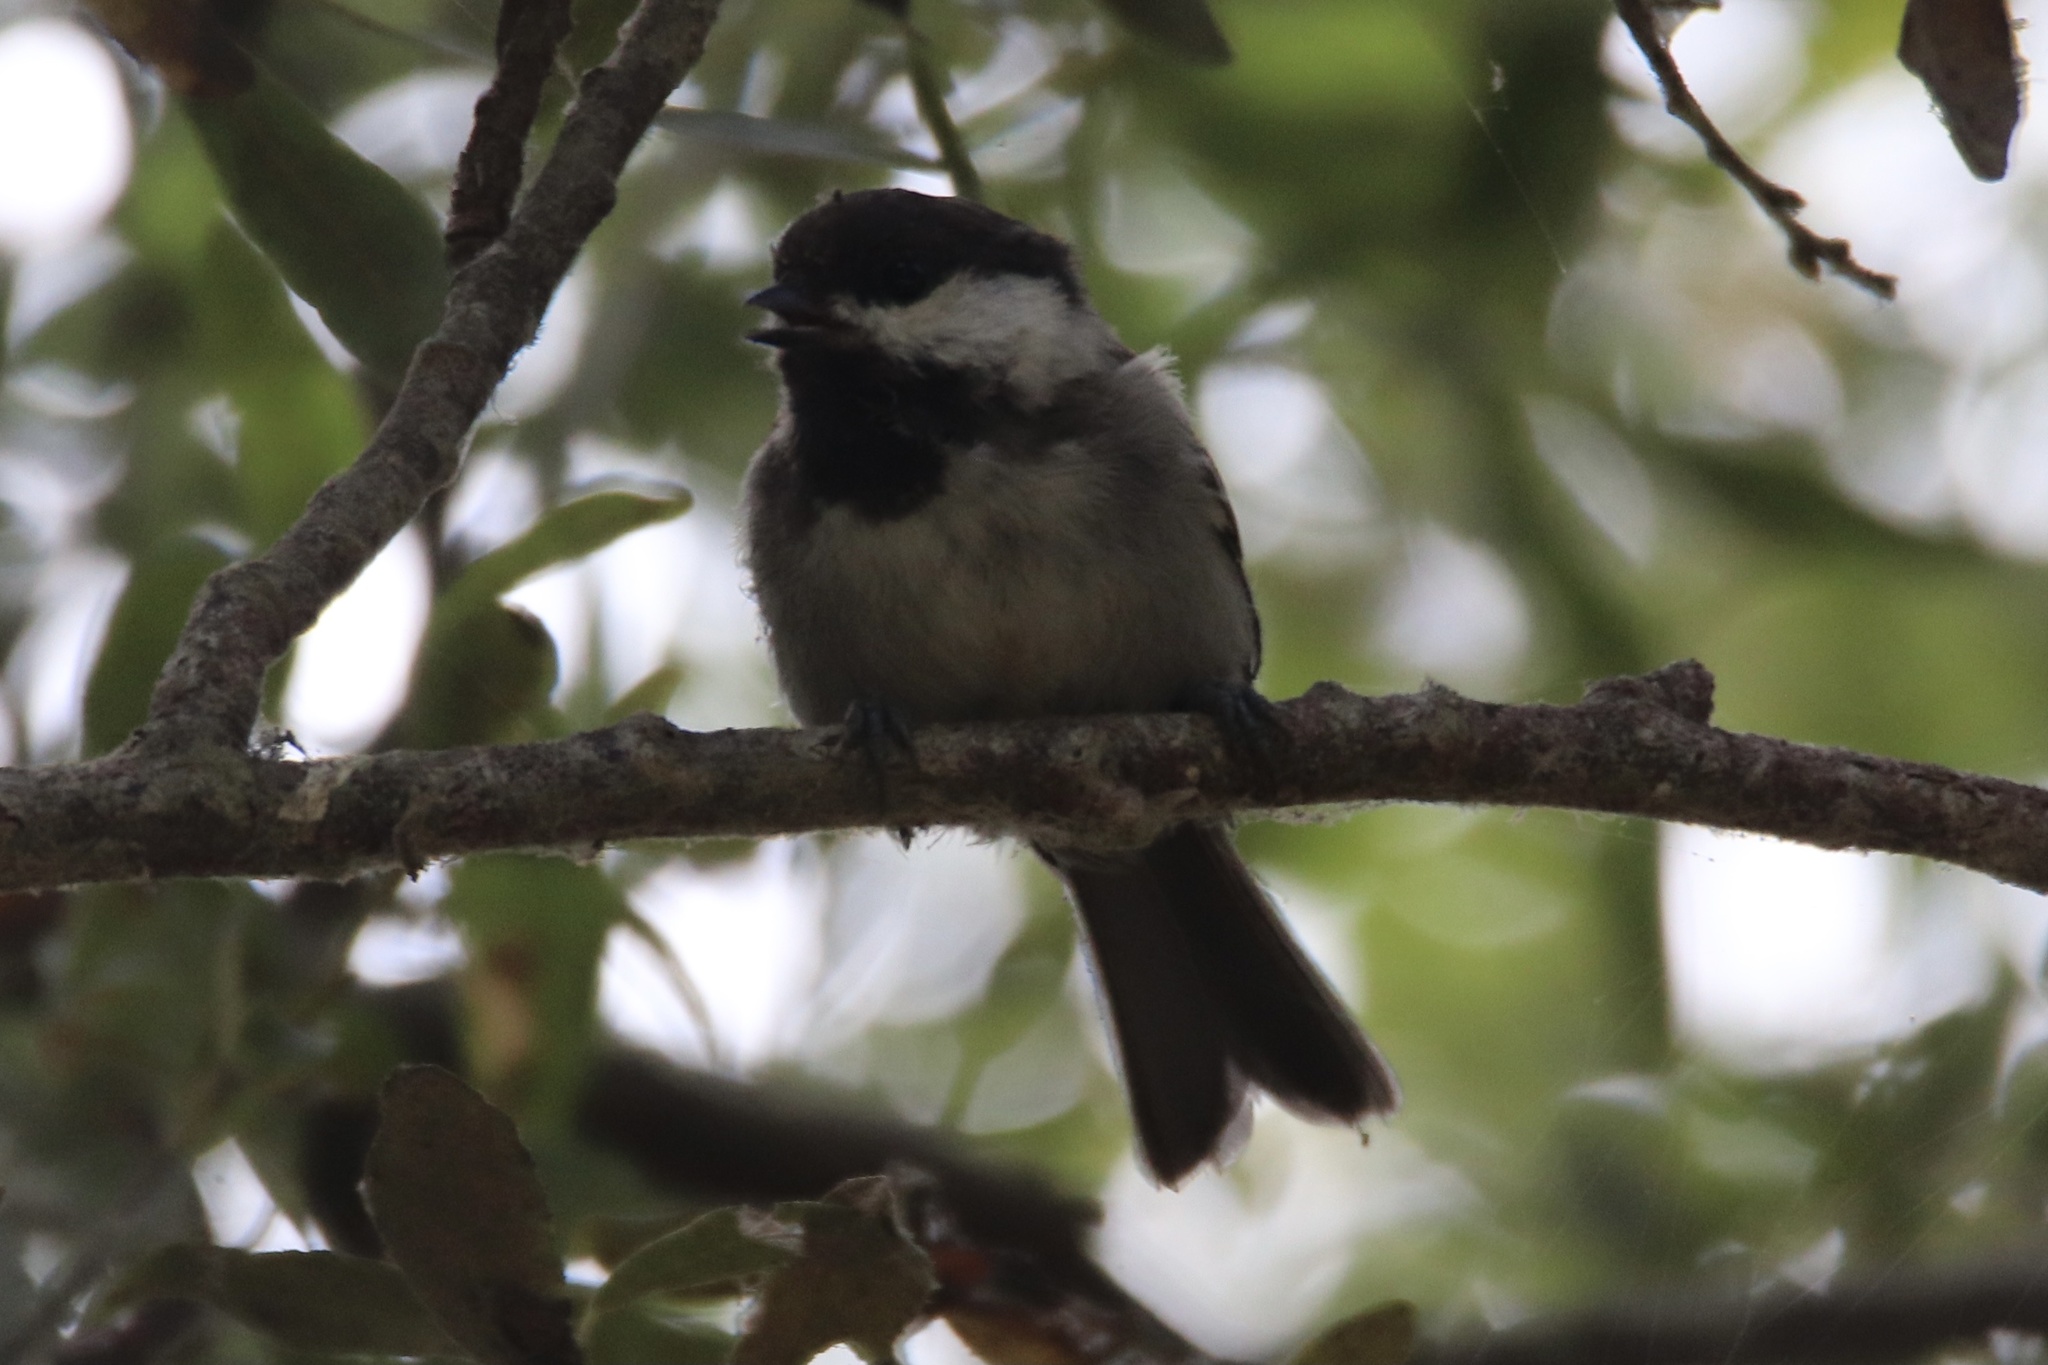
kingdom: Animalia
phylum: Chordata
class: Aves
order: Passeriformes
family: Paridae
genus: Poecile
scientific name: Poecile rufescens
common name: Chestnut-backed chickadee
